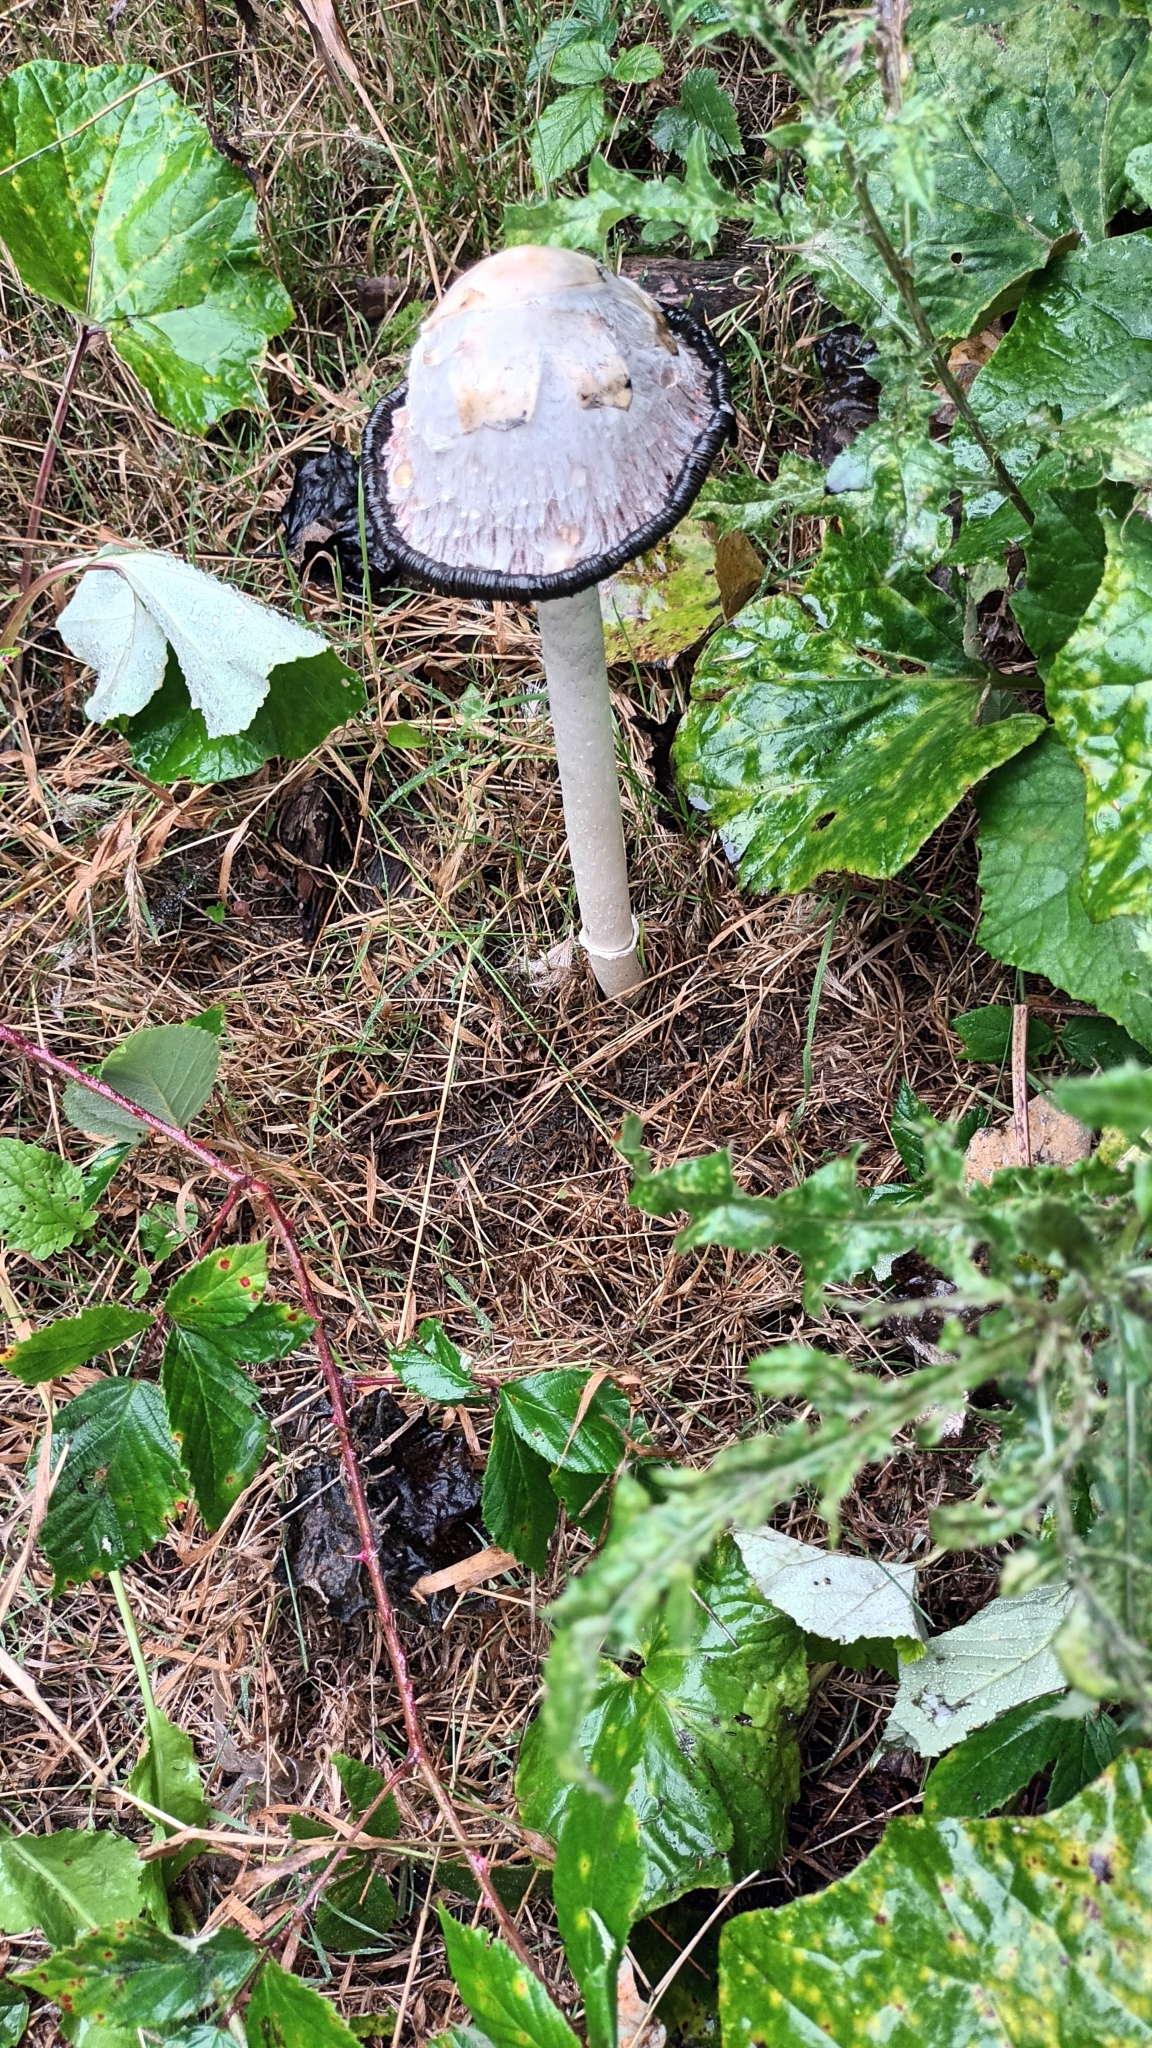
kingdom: Fungi
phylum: Basidiomycota
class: Agaricomycetes
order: Agaricales
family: Agaricaceae
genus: Coprinus
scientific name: Coprinus comatus
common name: Lawyer's wig
